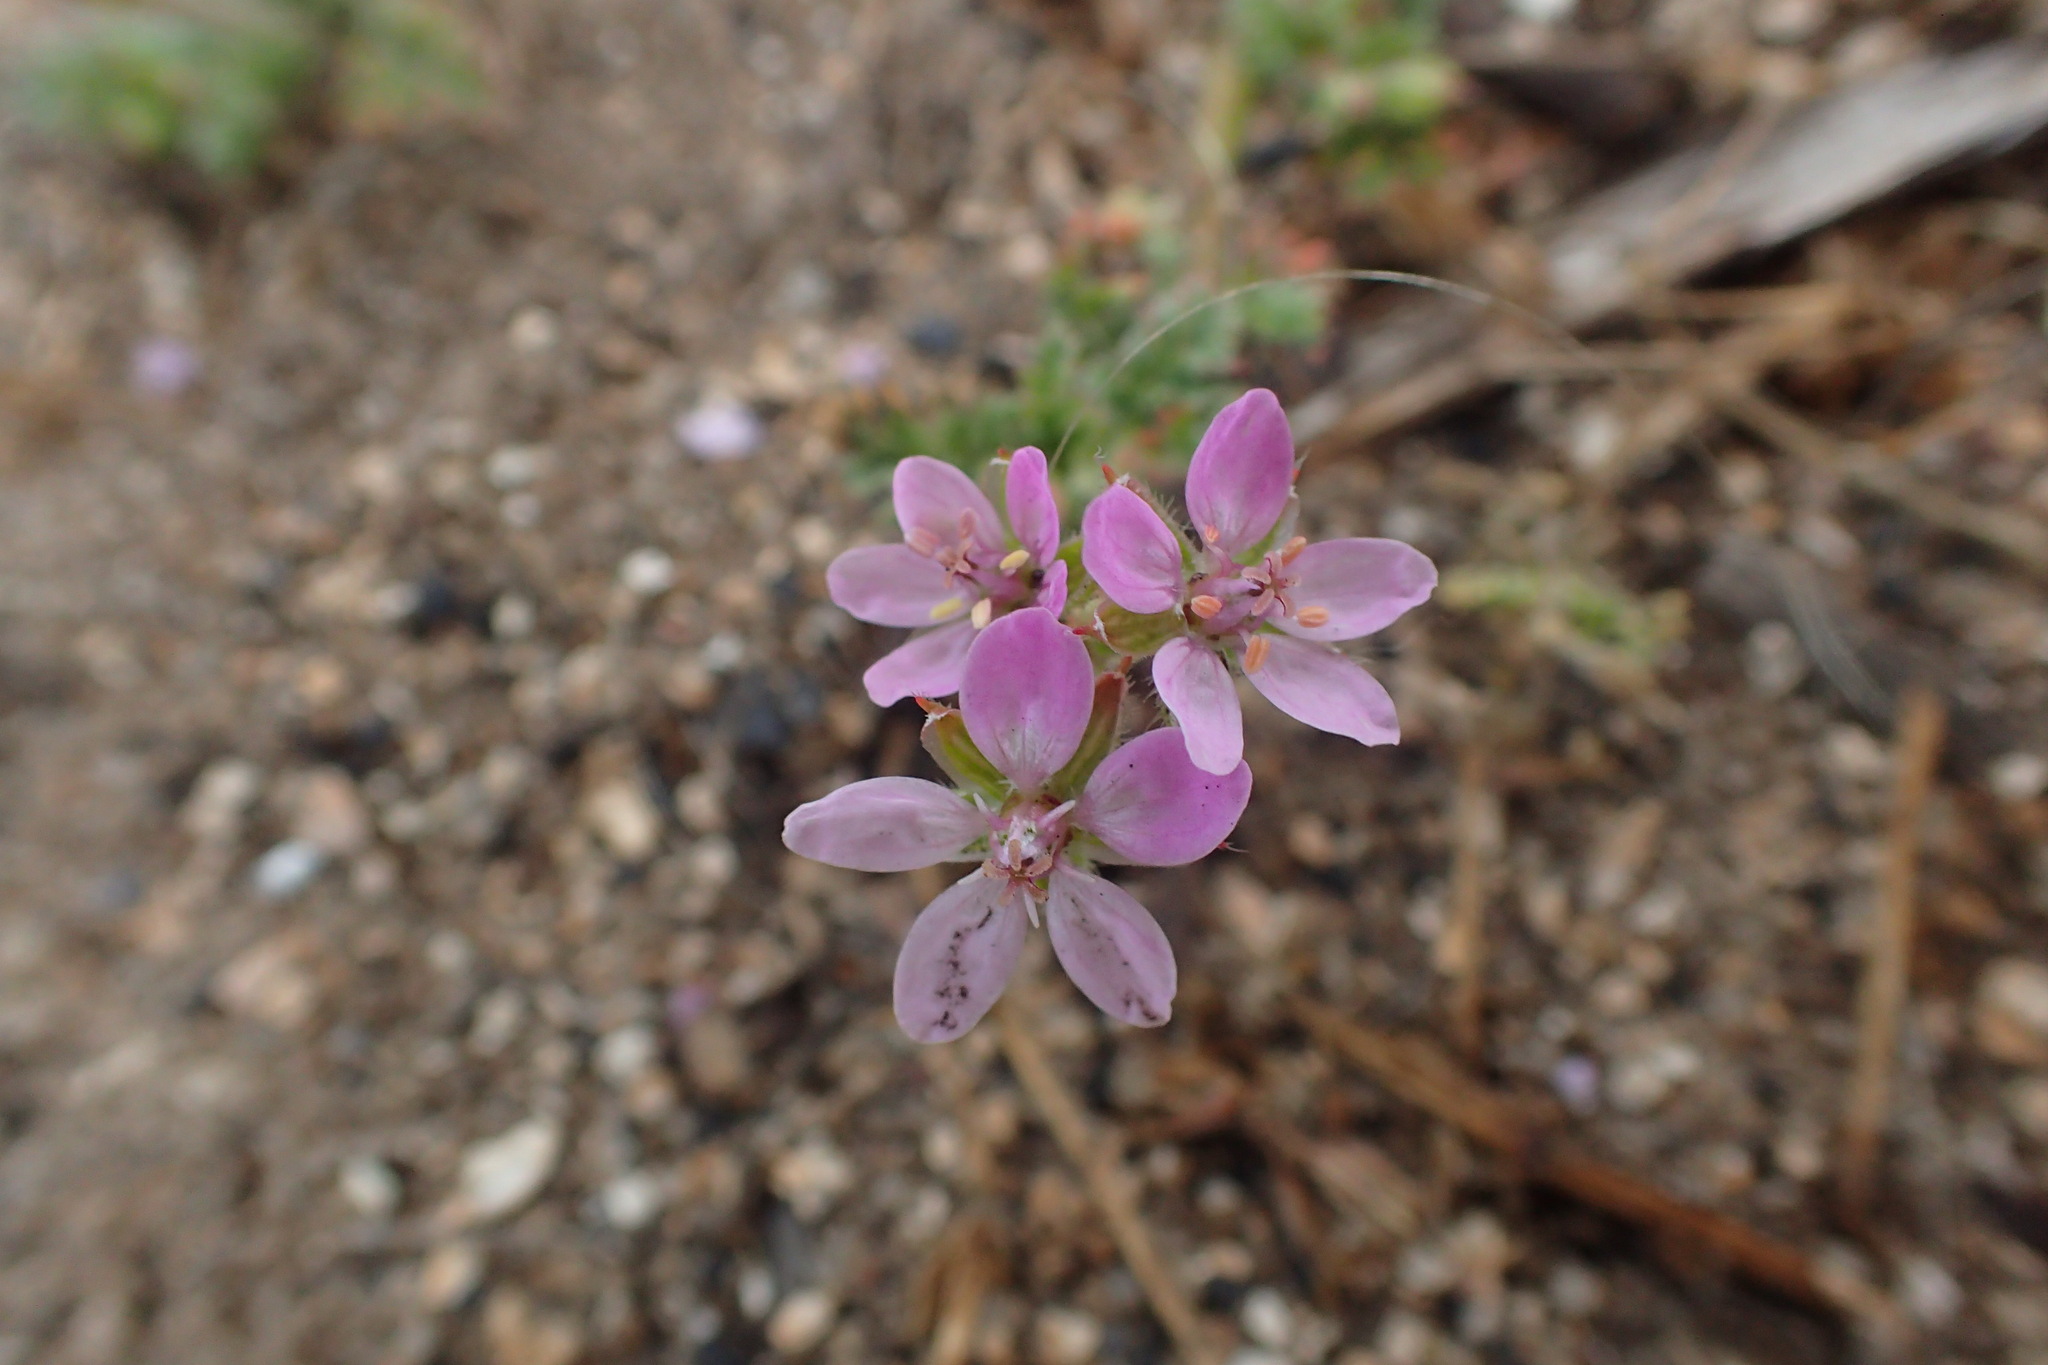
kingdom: Plantae
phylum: Tracheophyta
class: Magnoliopsida
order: Geraniales
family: Geraniaceae
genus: Erodium
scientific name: Erodium cicutarium
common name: Common stork's-bill
